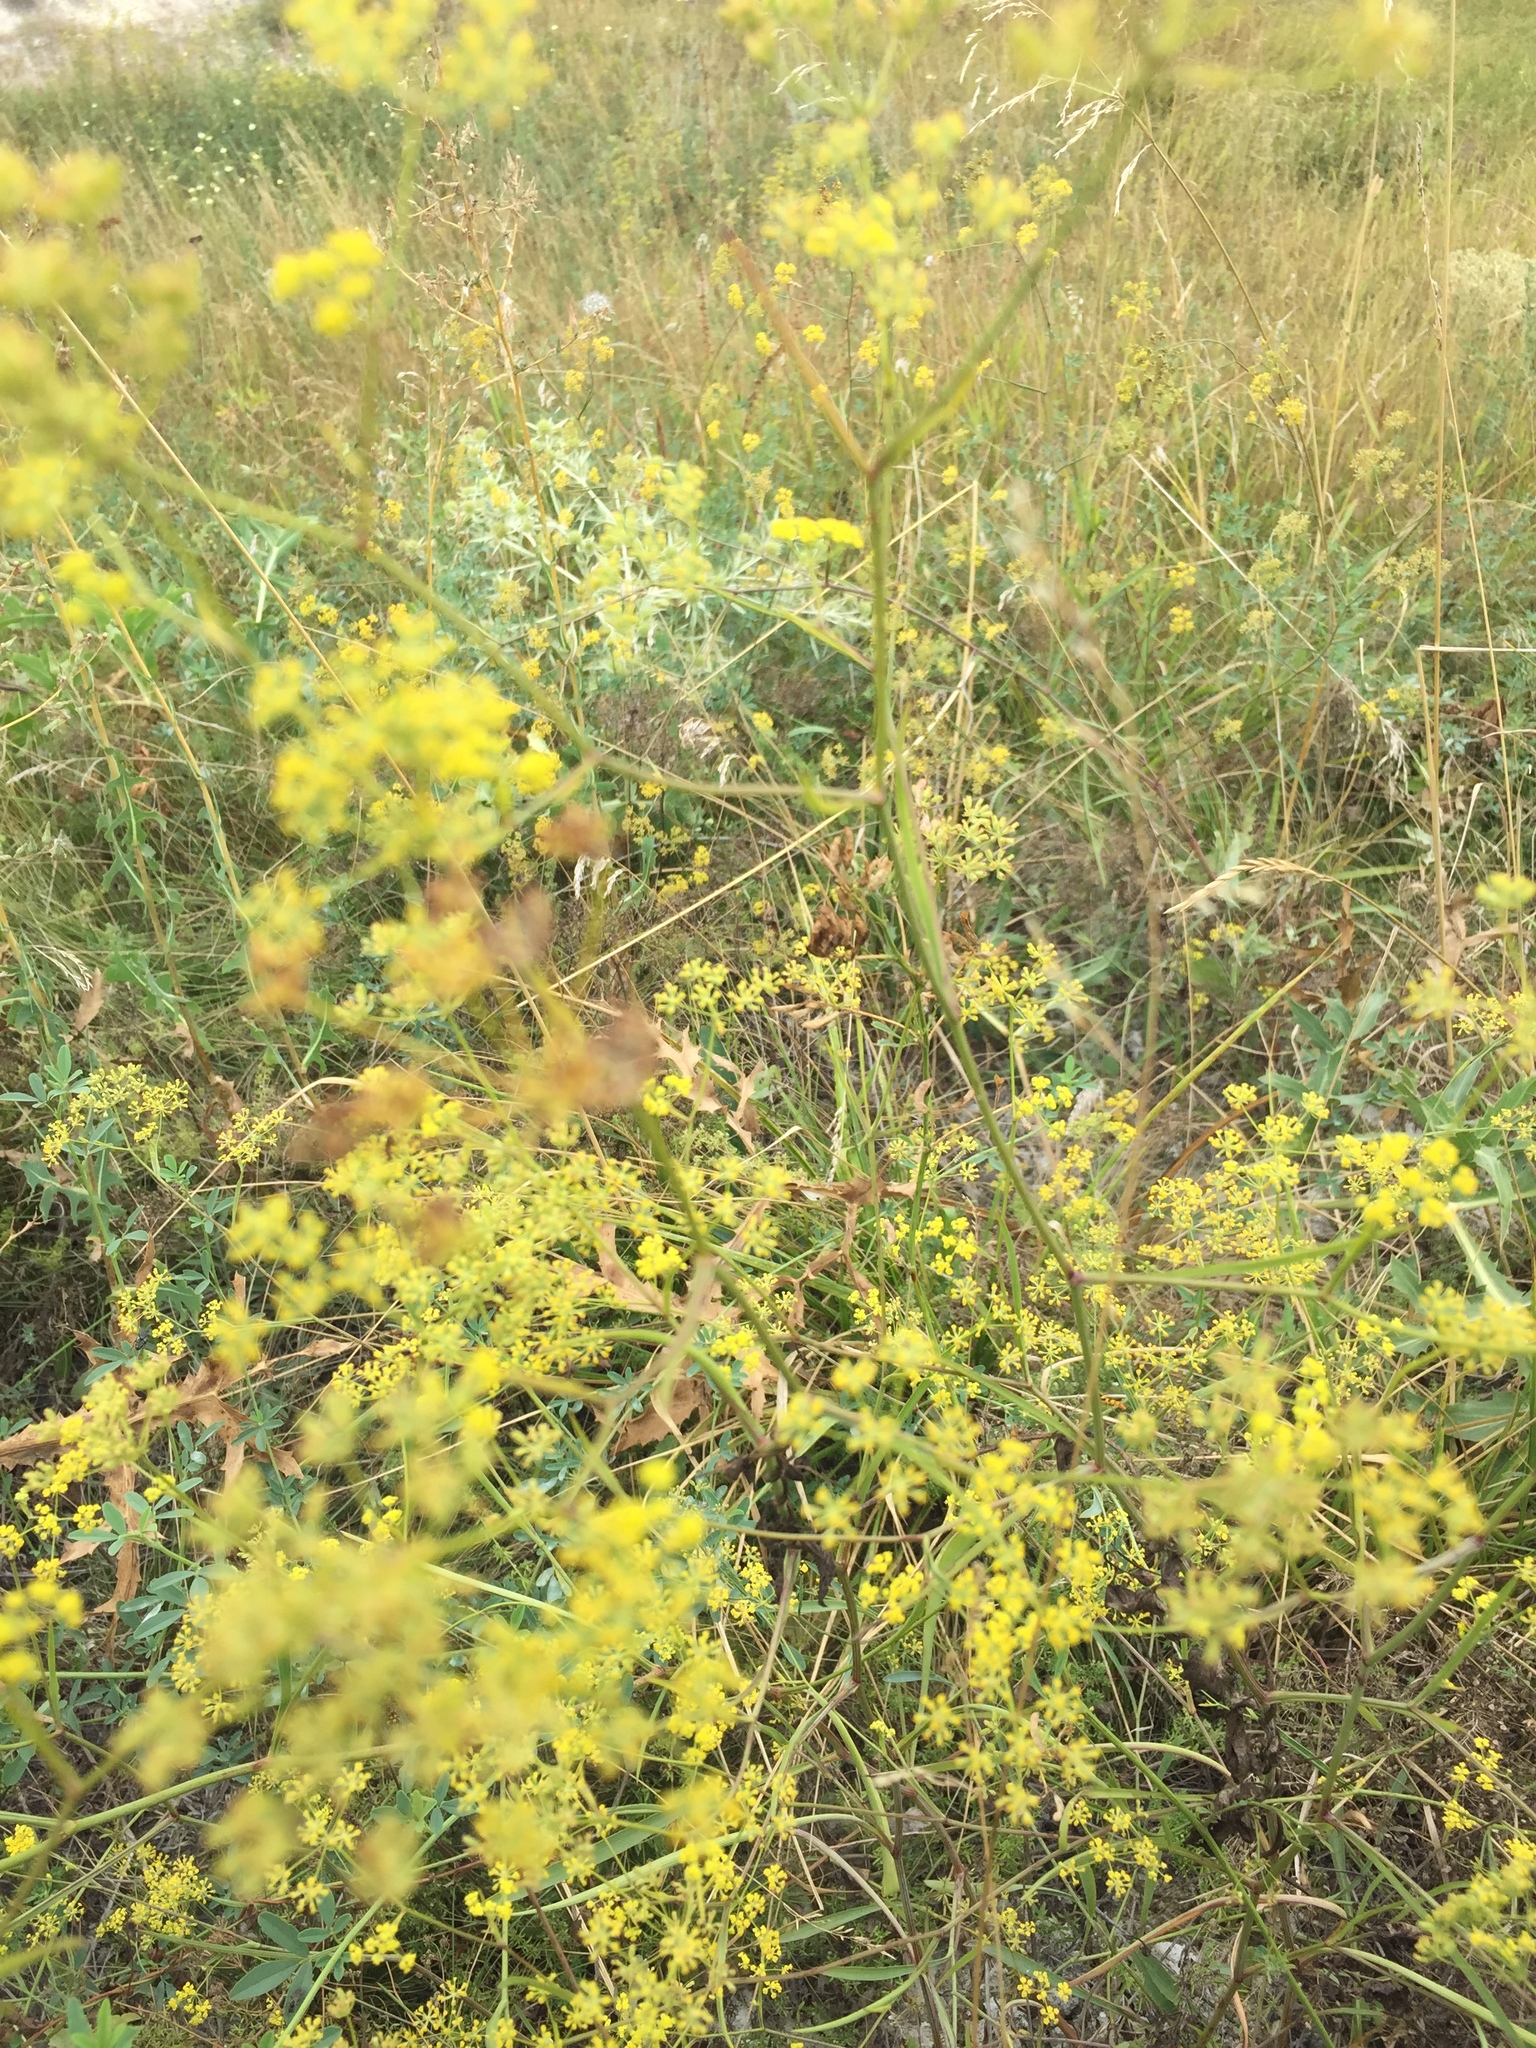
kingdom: Plantae
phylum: Tracheophyta
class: Magnoliopsida
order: Apiales
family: Apiaceae
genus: Bupleurum
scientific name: Bupleurum falcatum
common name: Sickle-leaved hare's-ear
